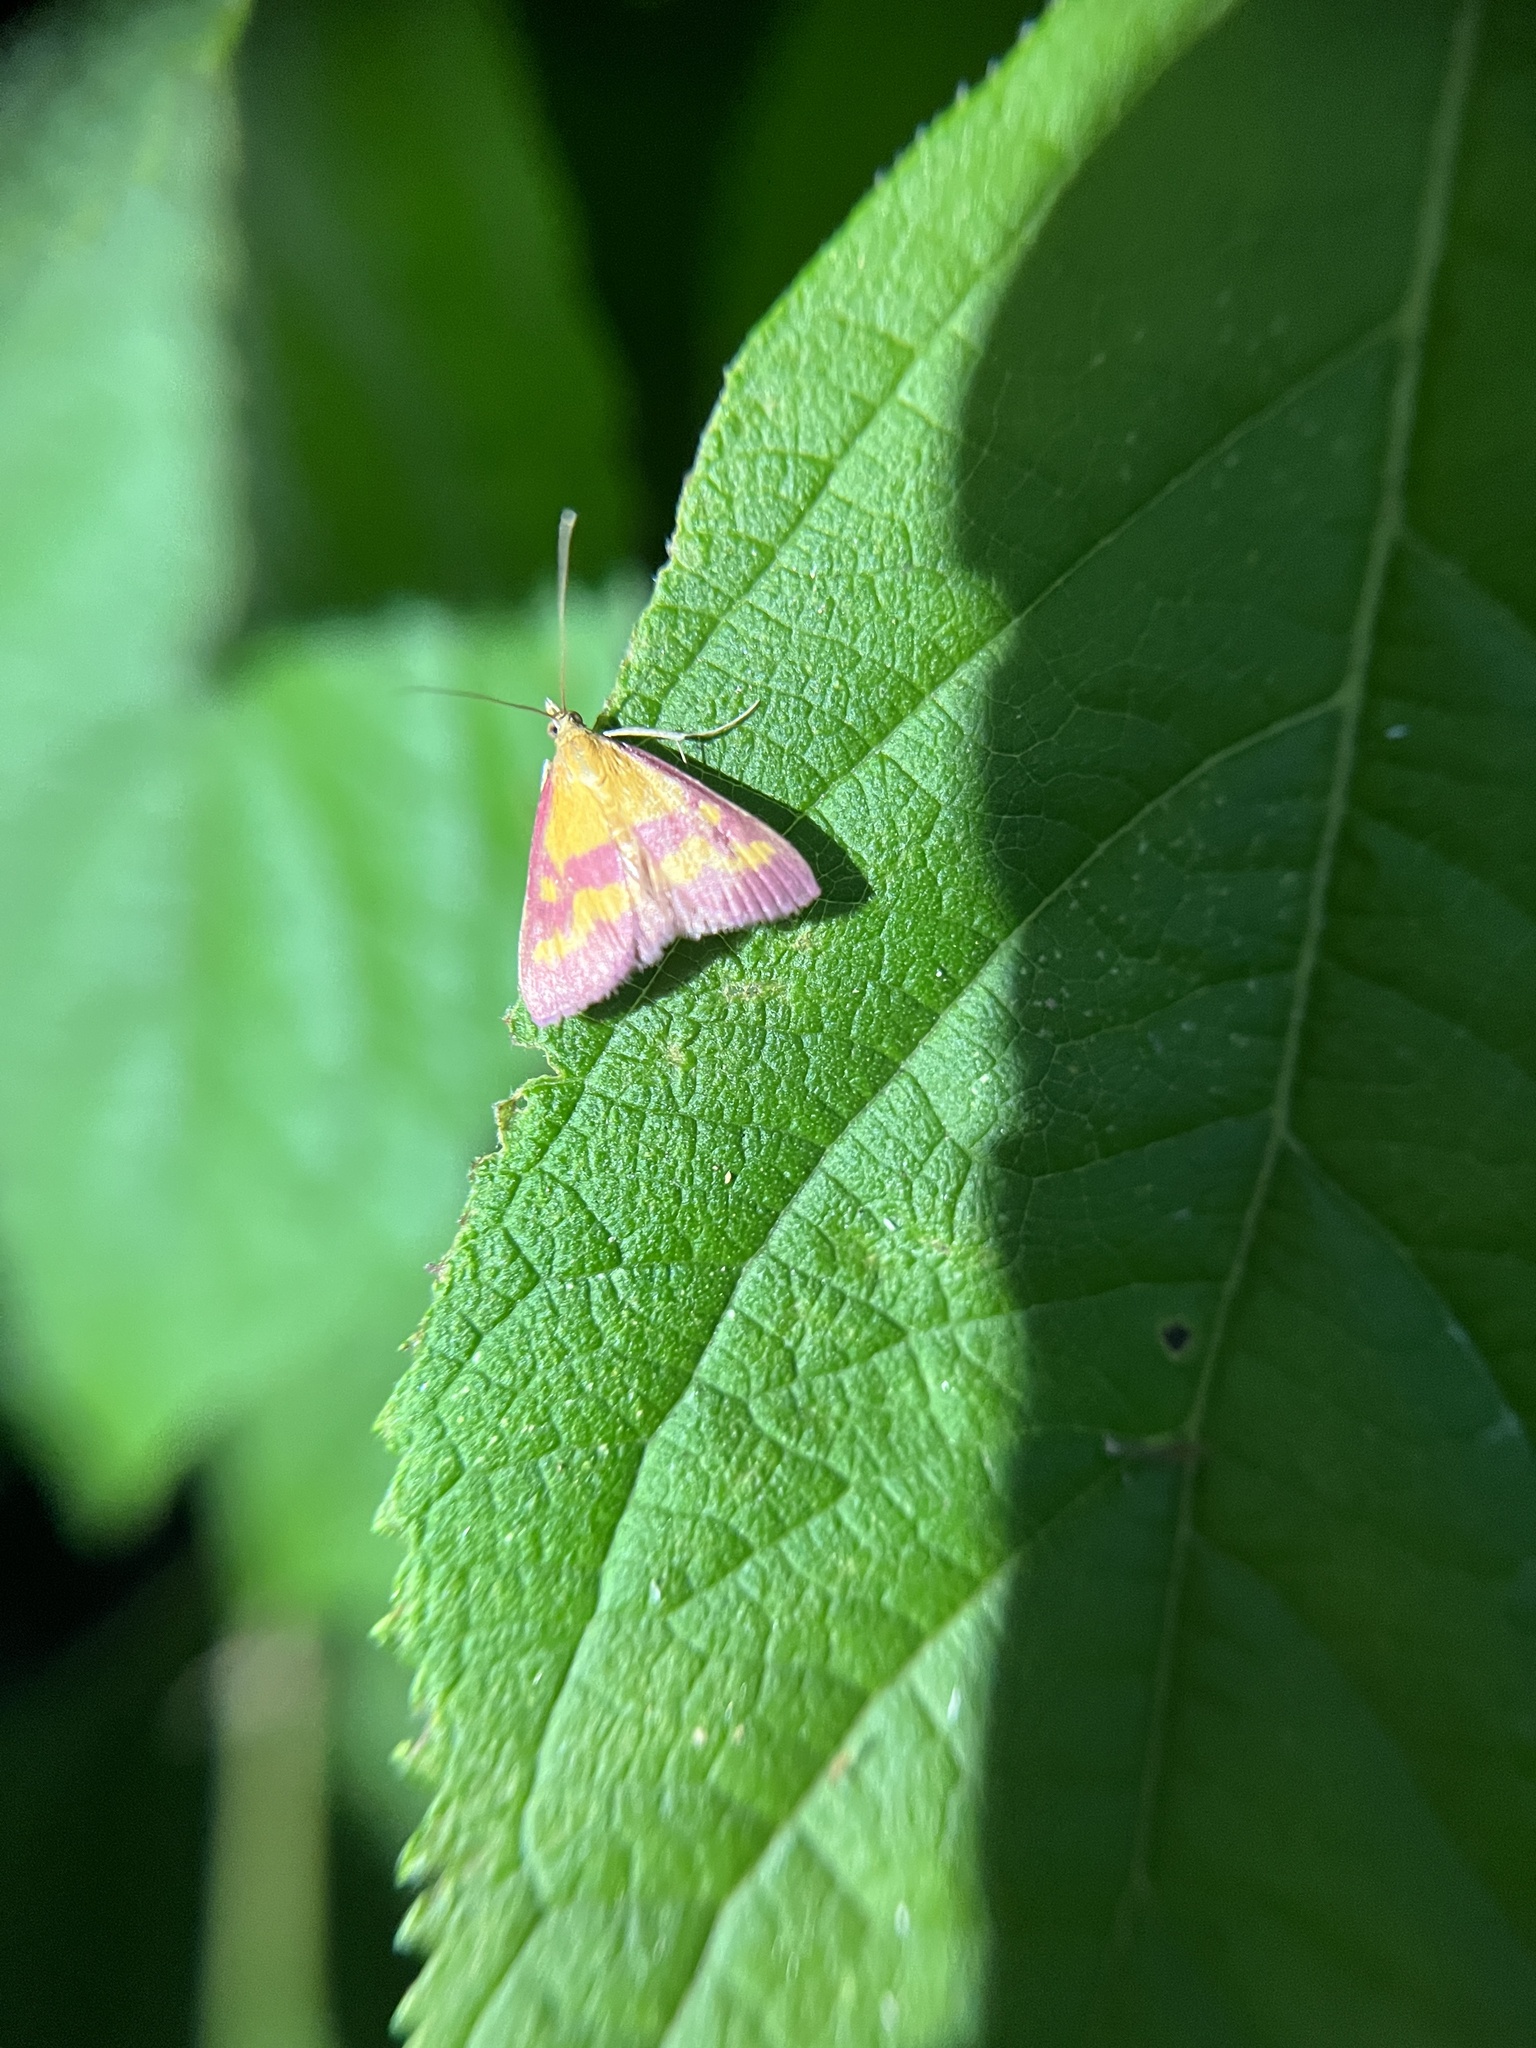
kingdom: Animalia
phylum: Arthropoda
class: Insecta
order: Lepidoptera
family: Crambidae
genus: Pyrausta
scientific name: Pyrausta laticlavia
